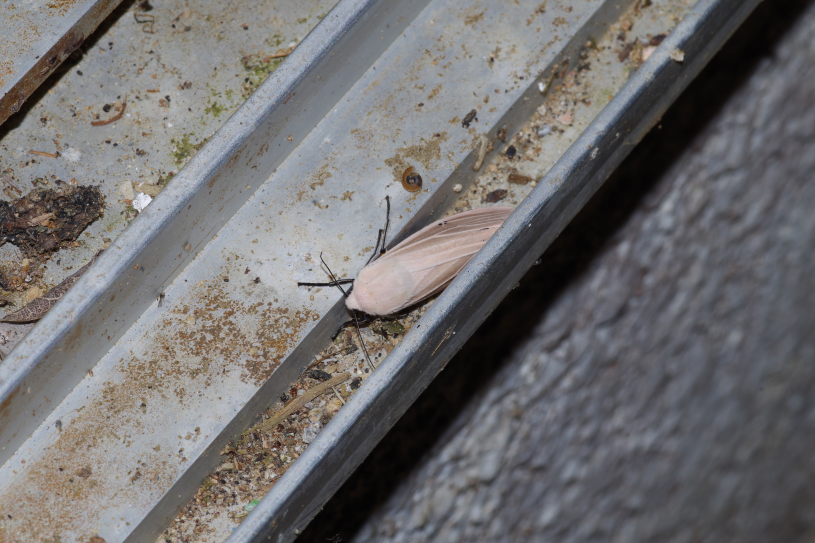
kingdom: Animalia
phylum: Arthropoda
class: Insecta
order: Lepidoptera
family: Erebidae
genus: Creatonotos
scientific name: Creatonotos transiens
